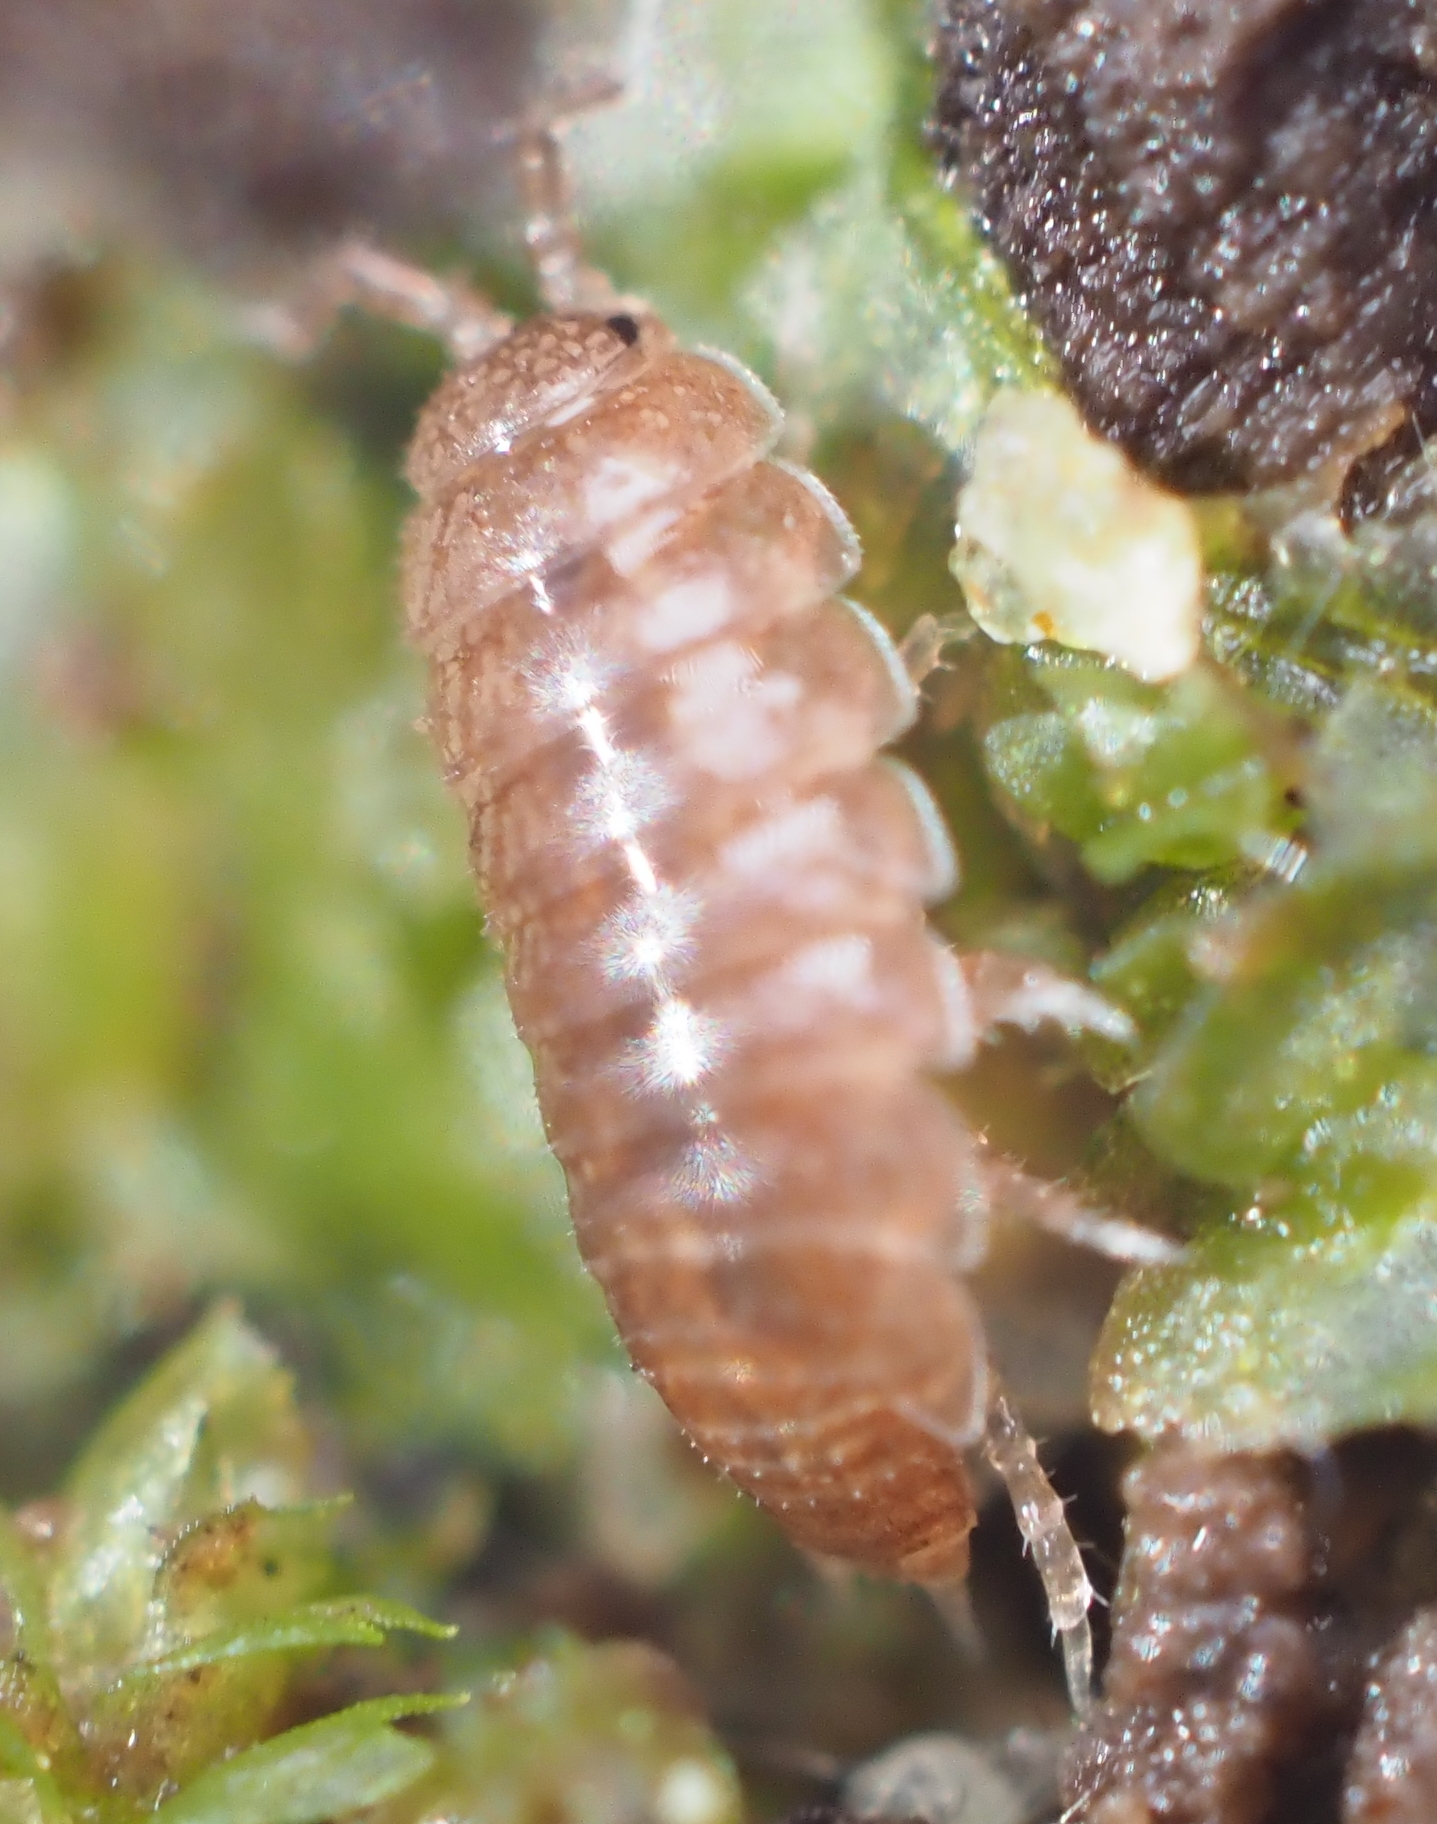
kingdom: Animalia
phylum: Arthropoda
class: Malacostraca
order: Isopoda
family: Trichoniscidae
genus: Hyloniscus
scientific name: Hyloniscus riparius
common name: Isopod
